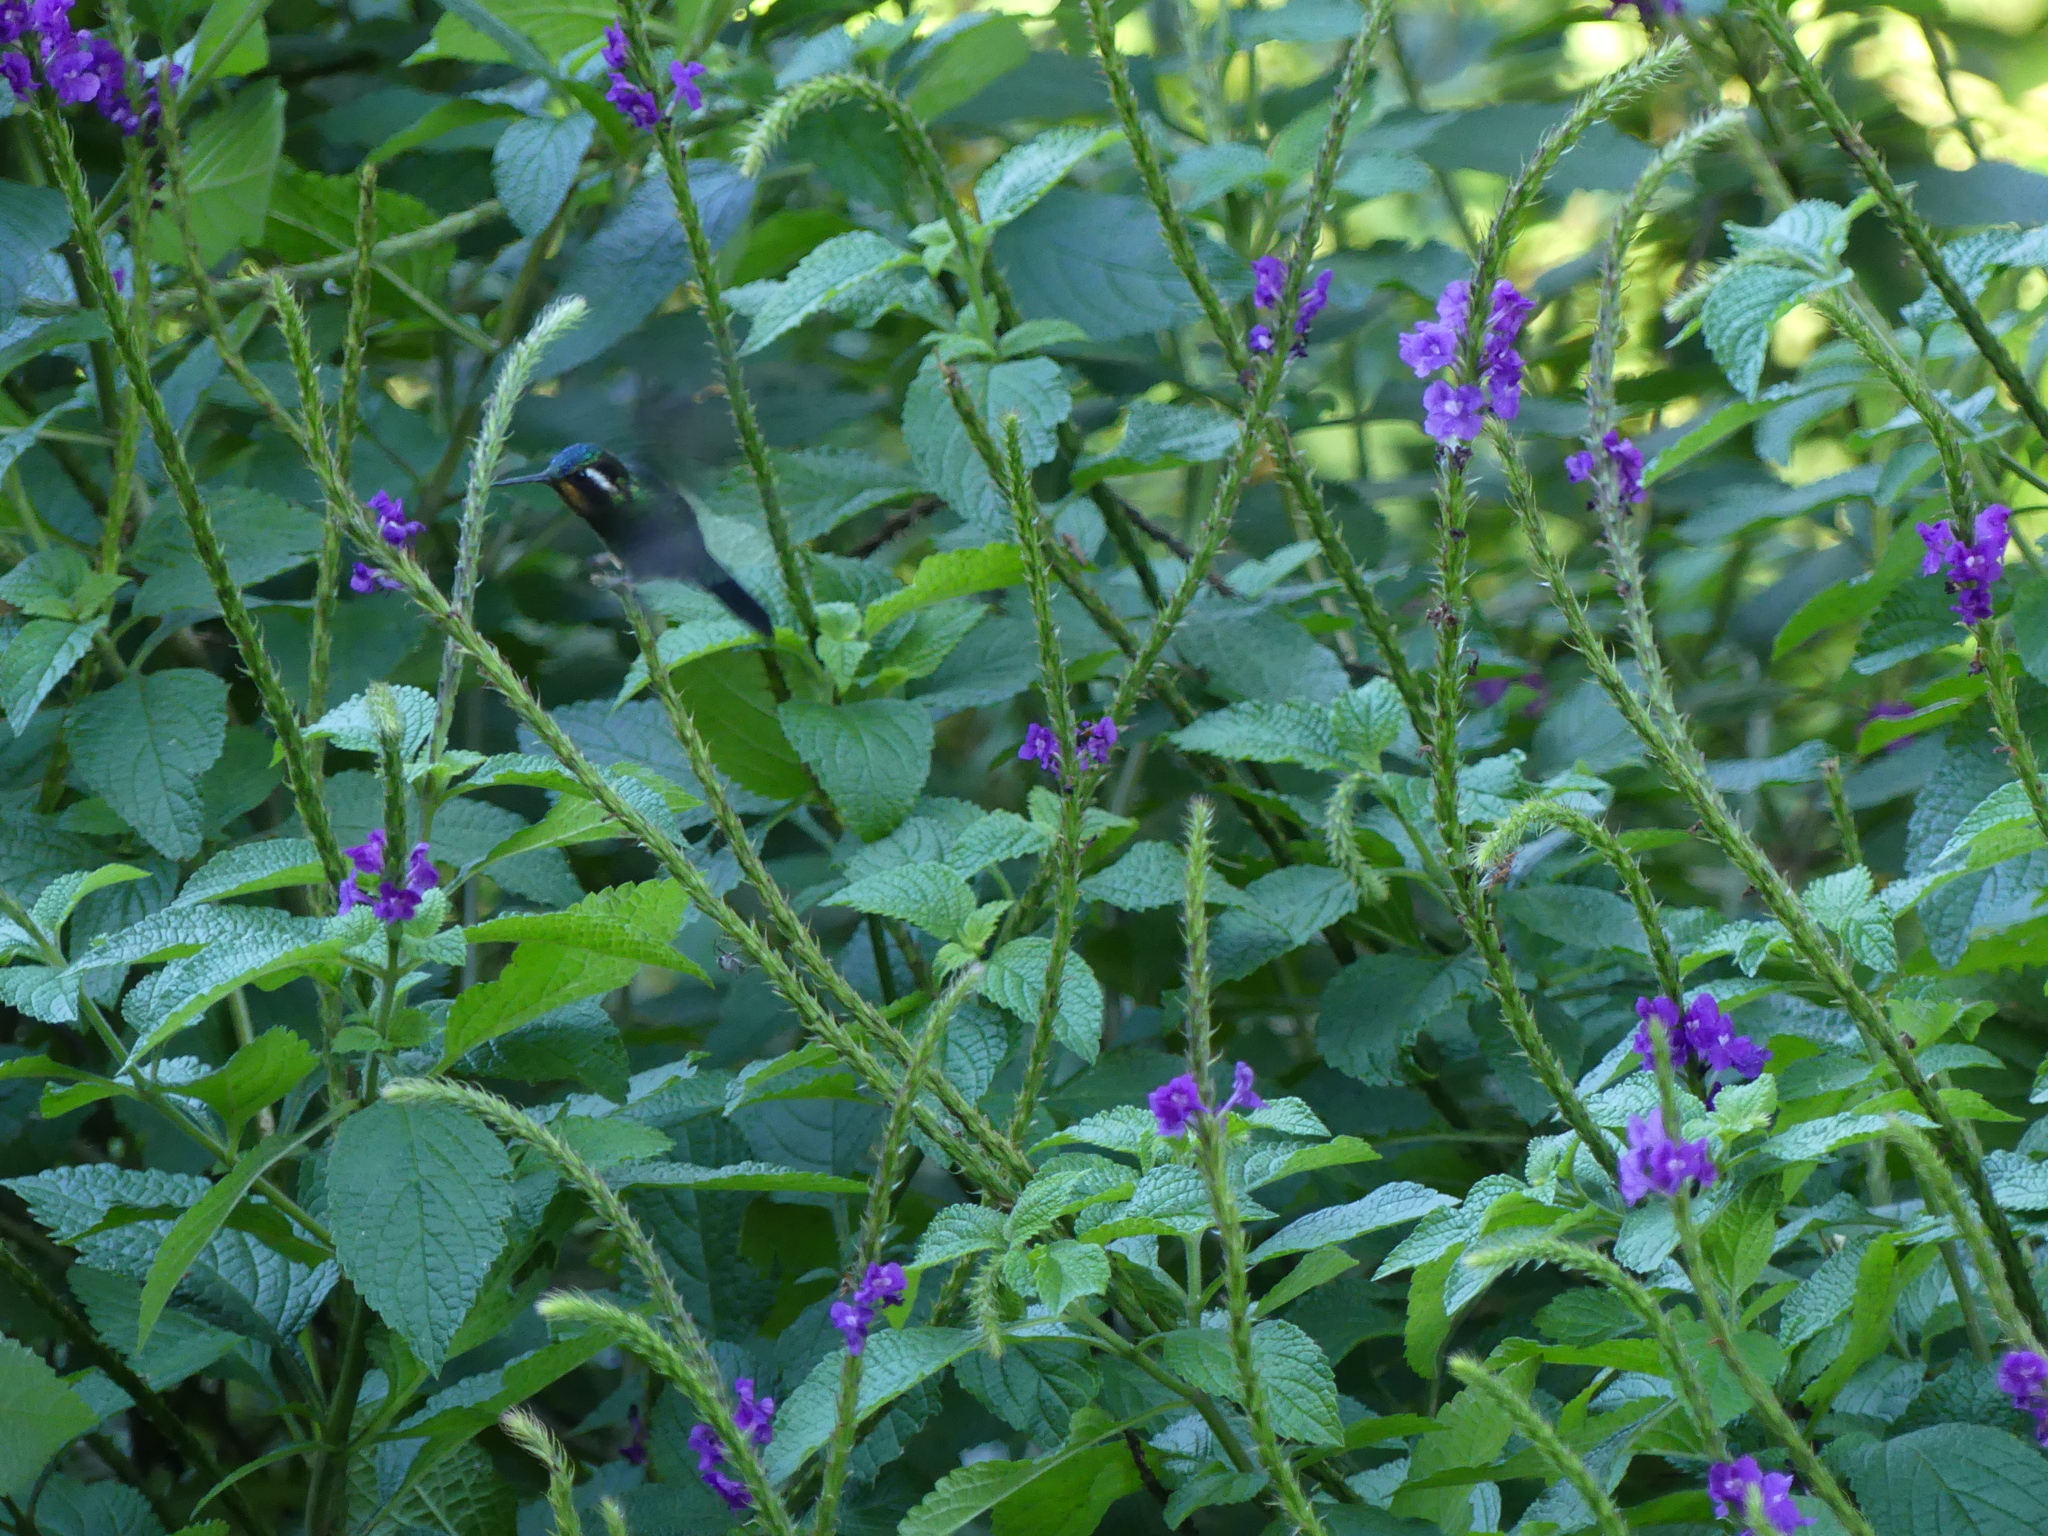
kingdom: Animalia
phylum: Chordata
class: Aves
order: Apodiformes
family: Trochilidae
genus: Lampornis
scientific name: Lampornis calolaemus
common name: Purple-throated mountain-gem
